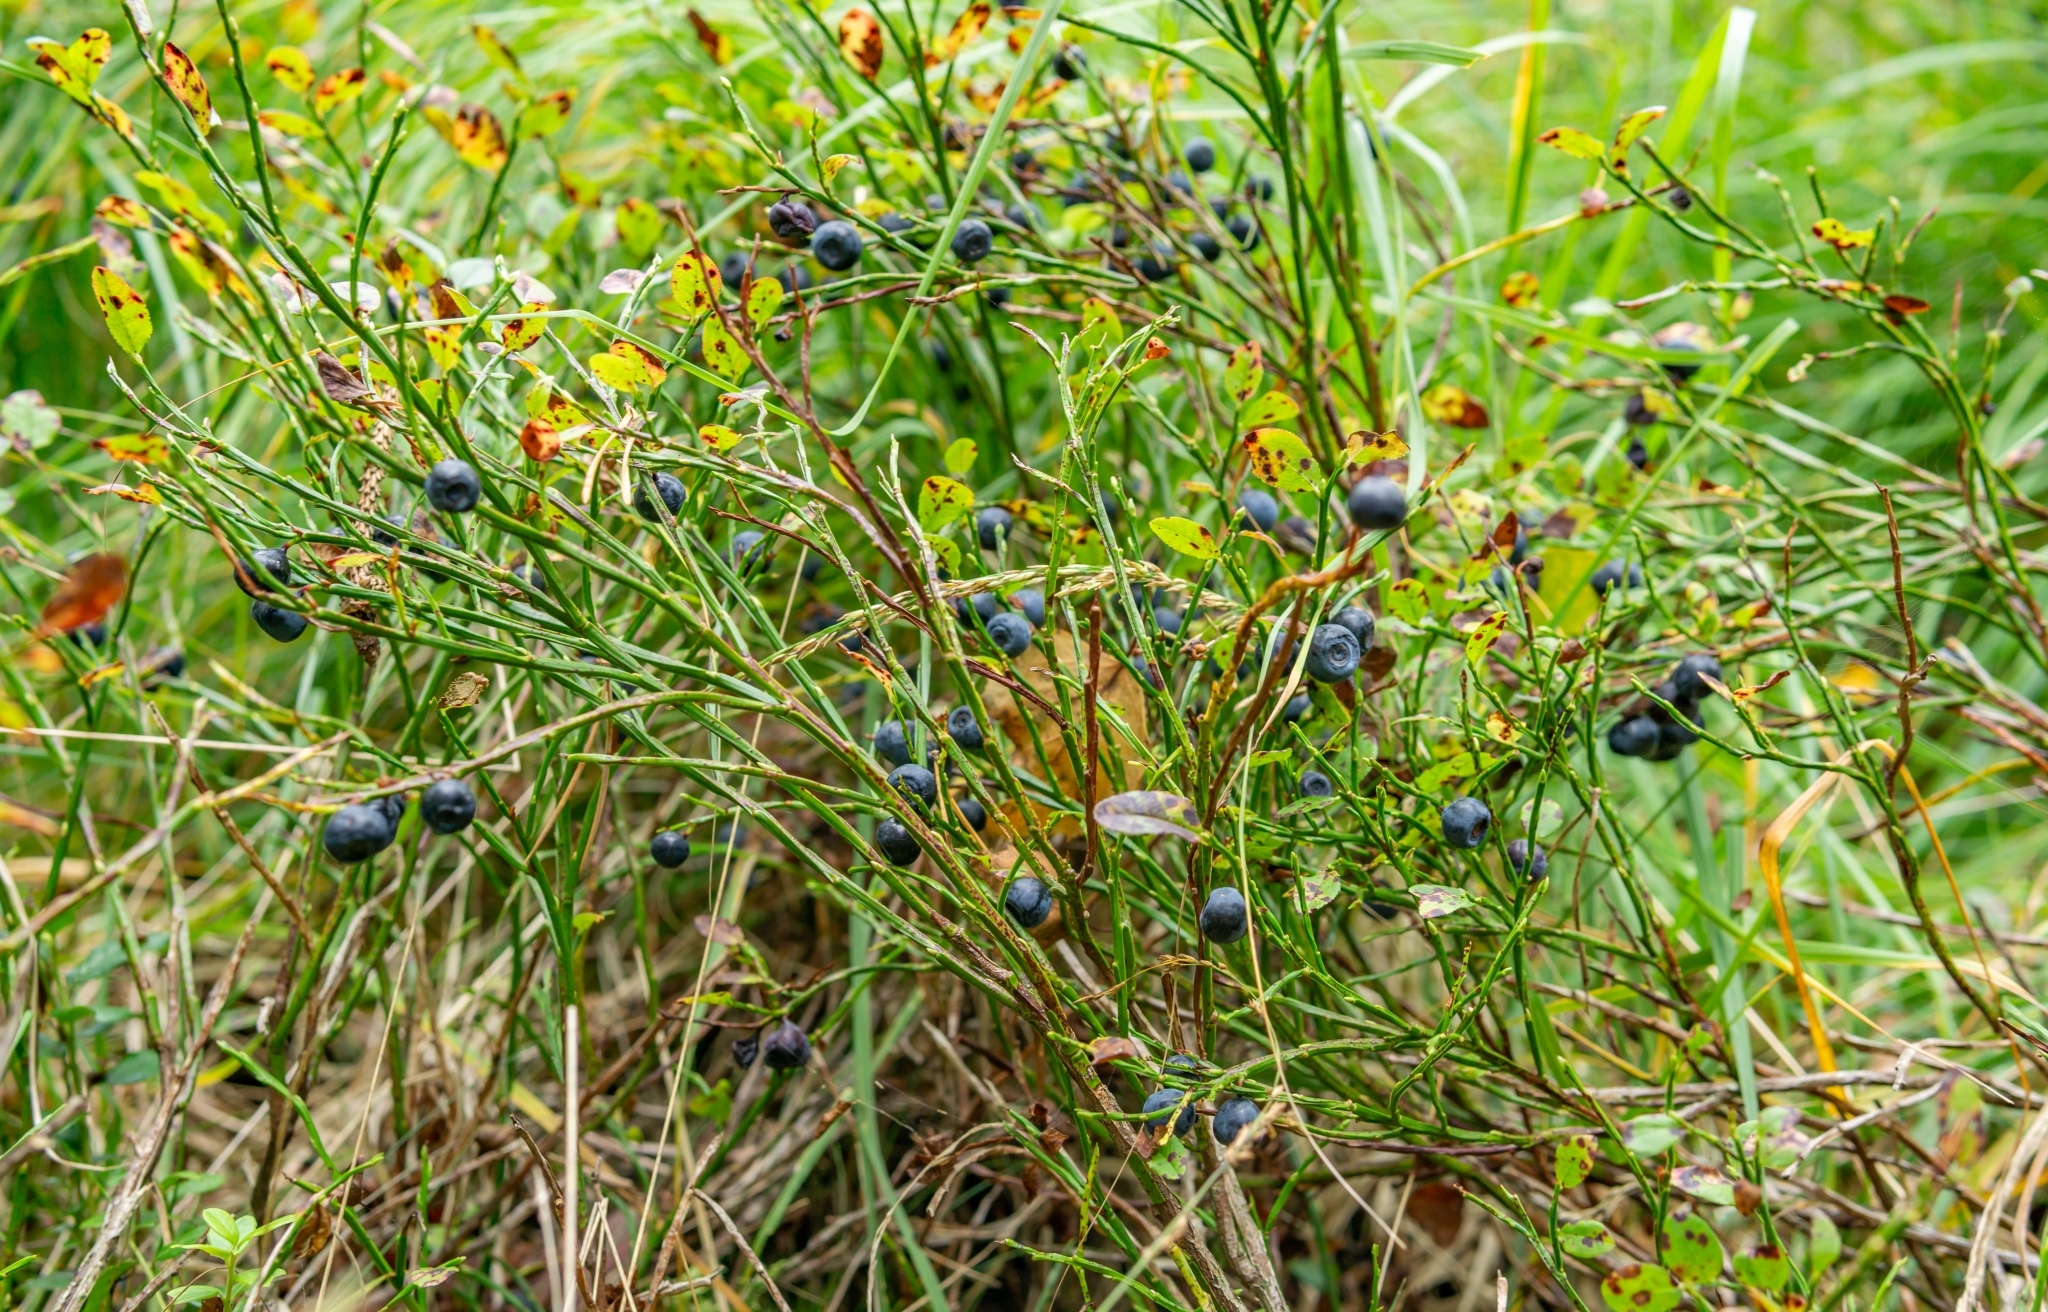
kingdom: Plantae
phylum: Tracheophyta
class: Magnoliopsida
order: Ericales
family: Ericaceae
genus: Vaccinium
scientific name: Vaccinium myrtillus
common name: Bilberry
